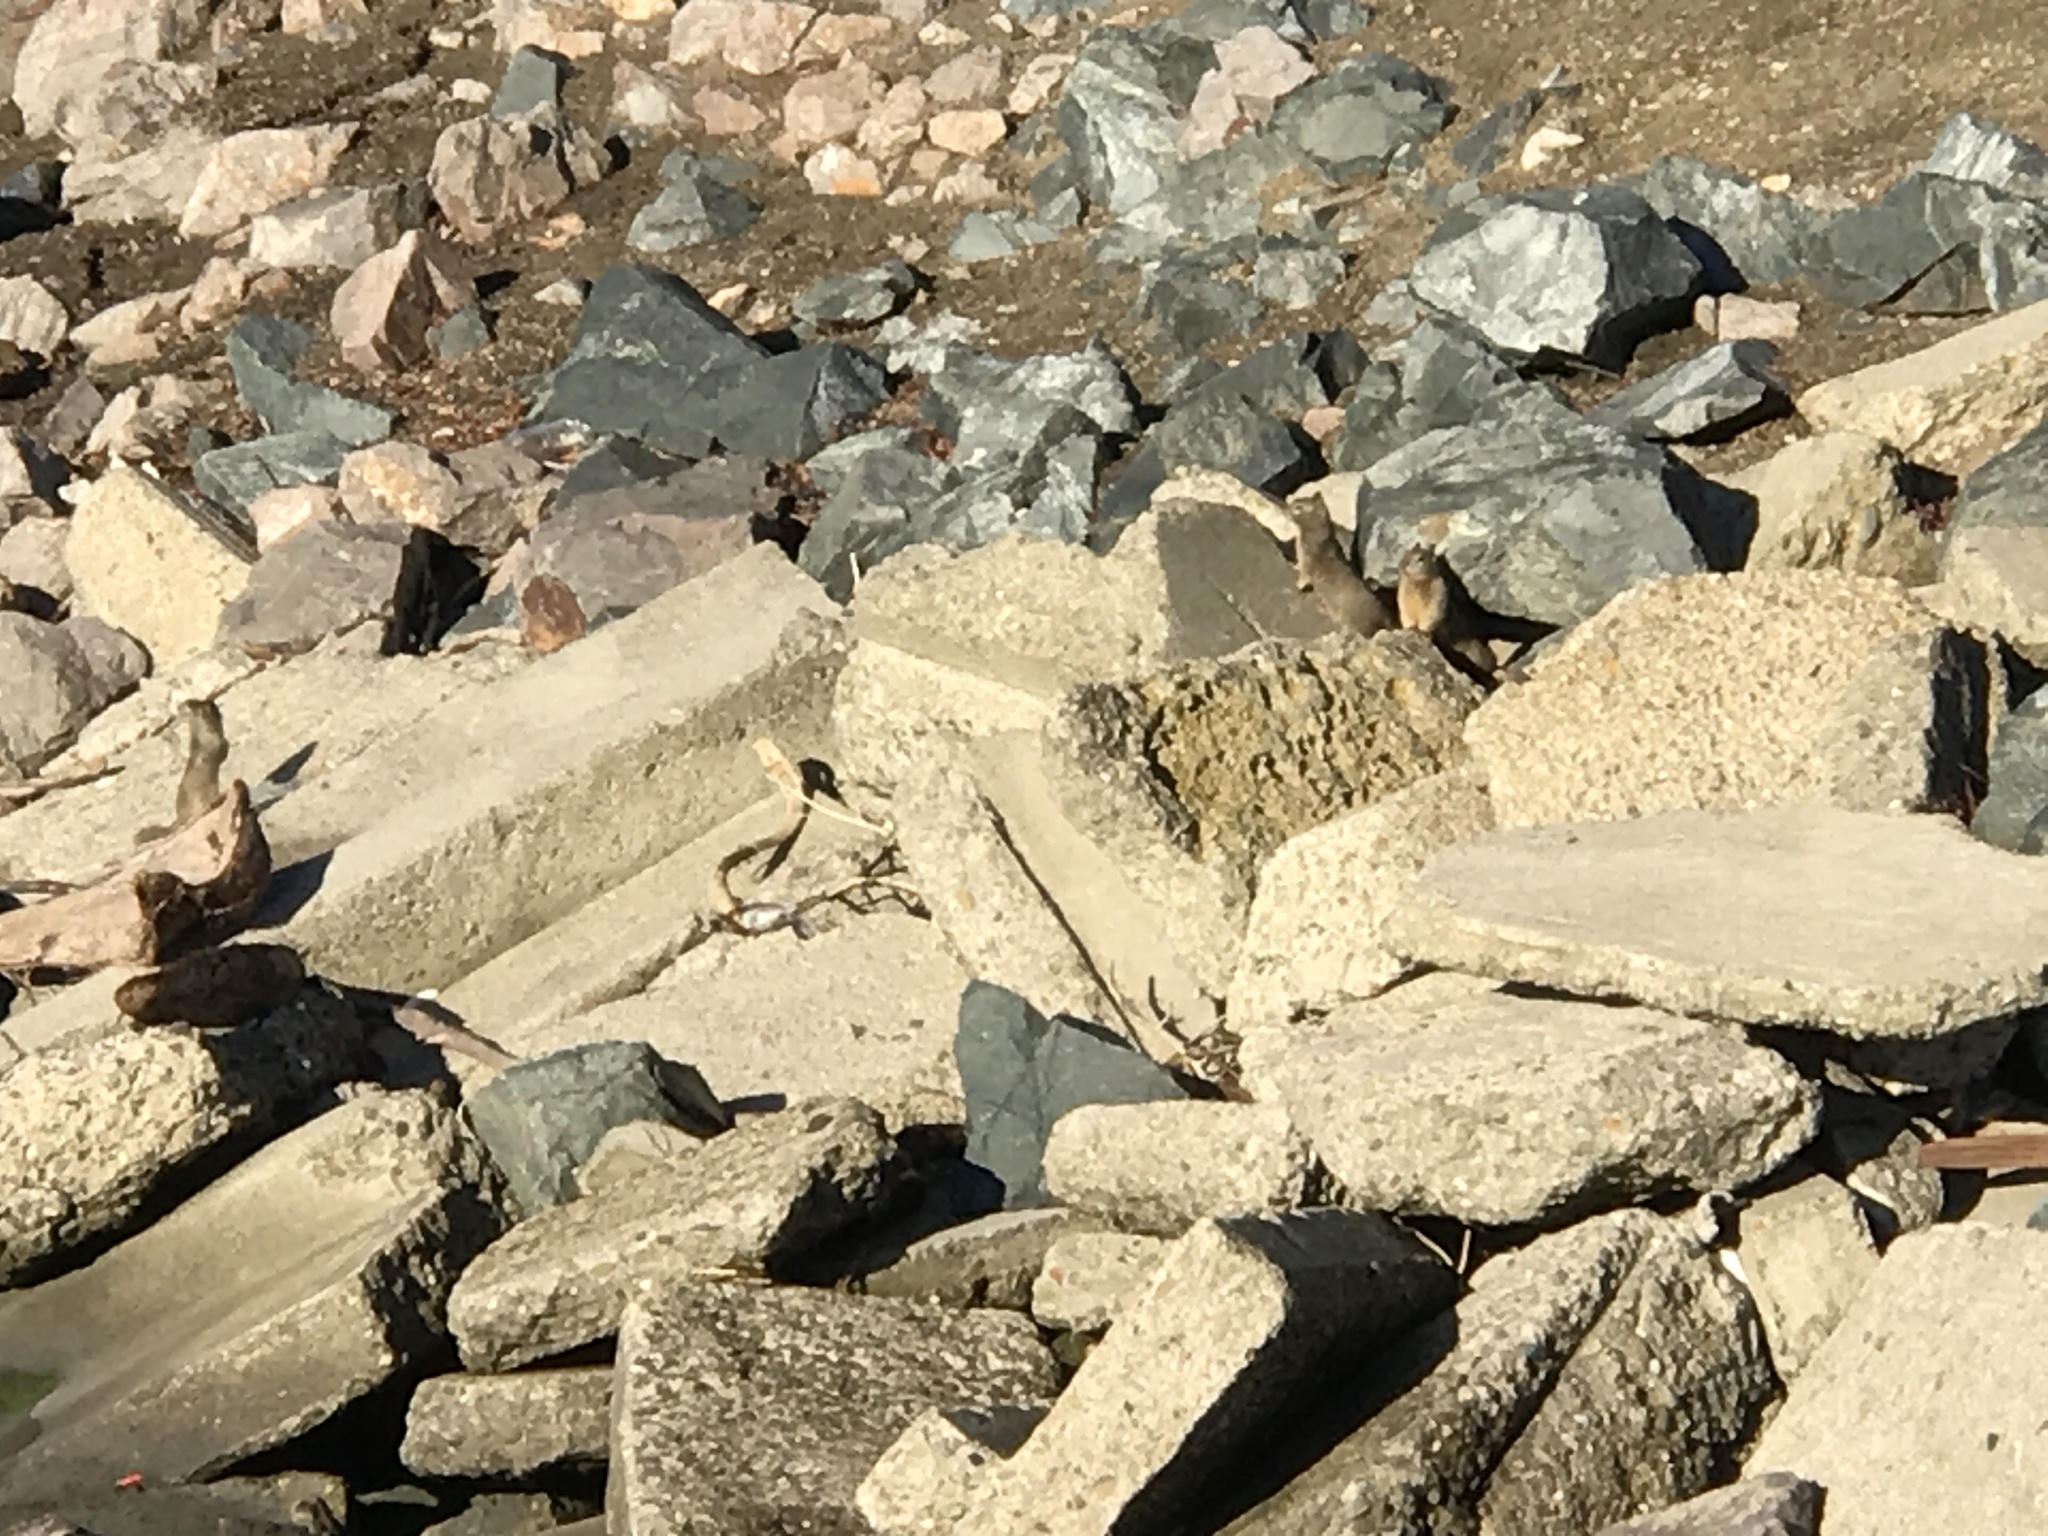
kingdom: Animalia
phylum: Chordata
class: Mammalia
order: Rodentia
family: Sciuridae
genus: Otospermophilus
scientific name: Otospermophilus beecheyi
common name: California ground squirrel
